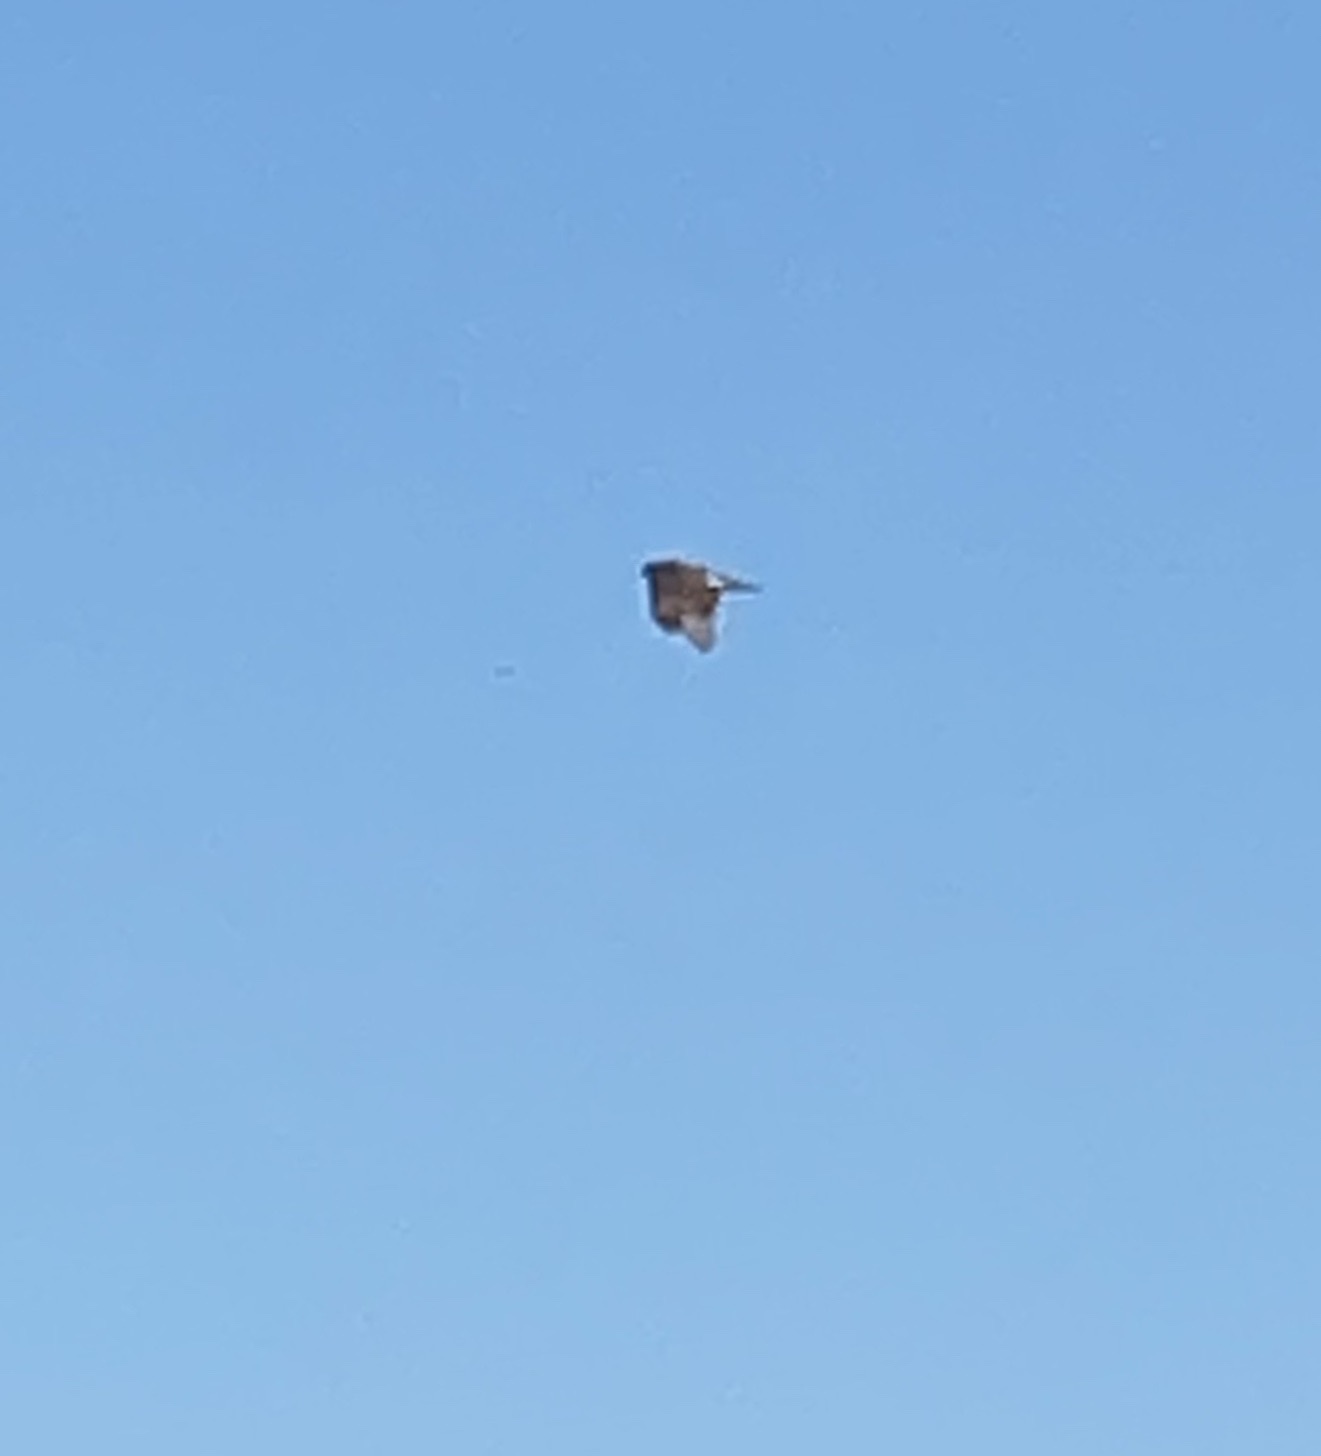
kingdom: Animalia
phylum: Chordata
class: Aves
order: Accipitriformes
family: Accipitridae
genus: Accipiter
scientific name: Accipiter gentilis
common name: Northern goshawk
